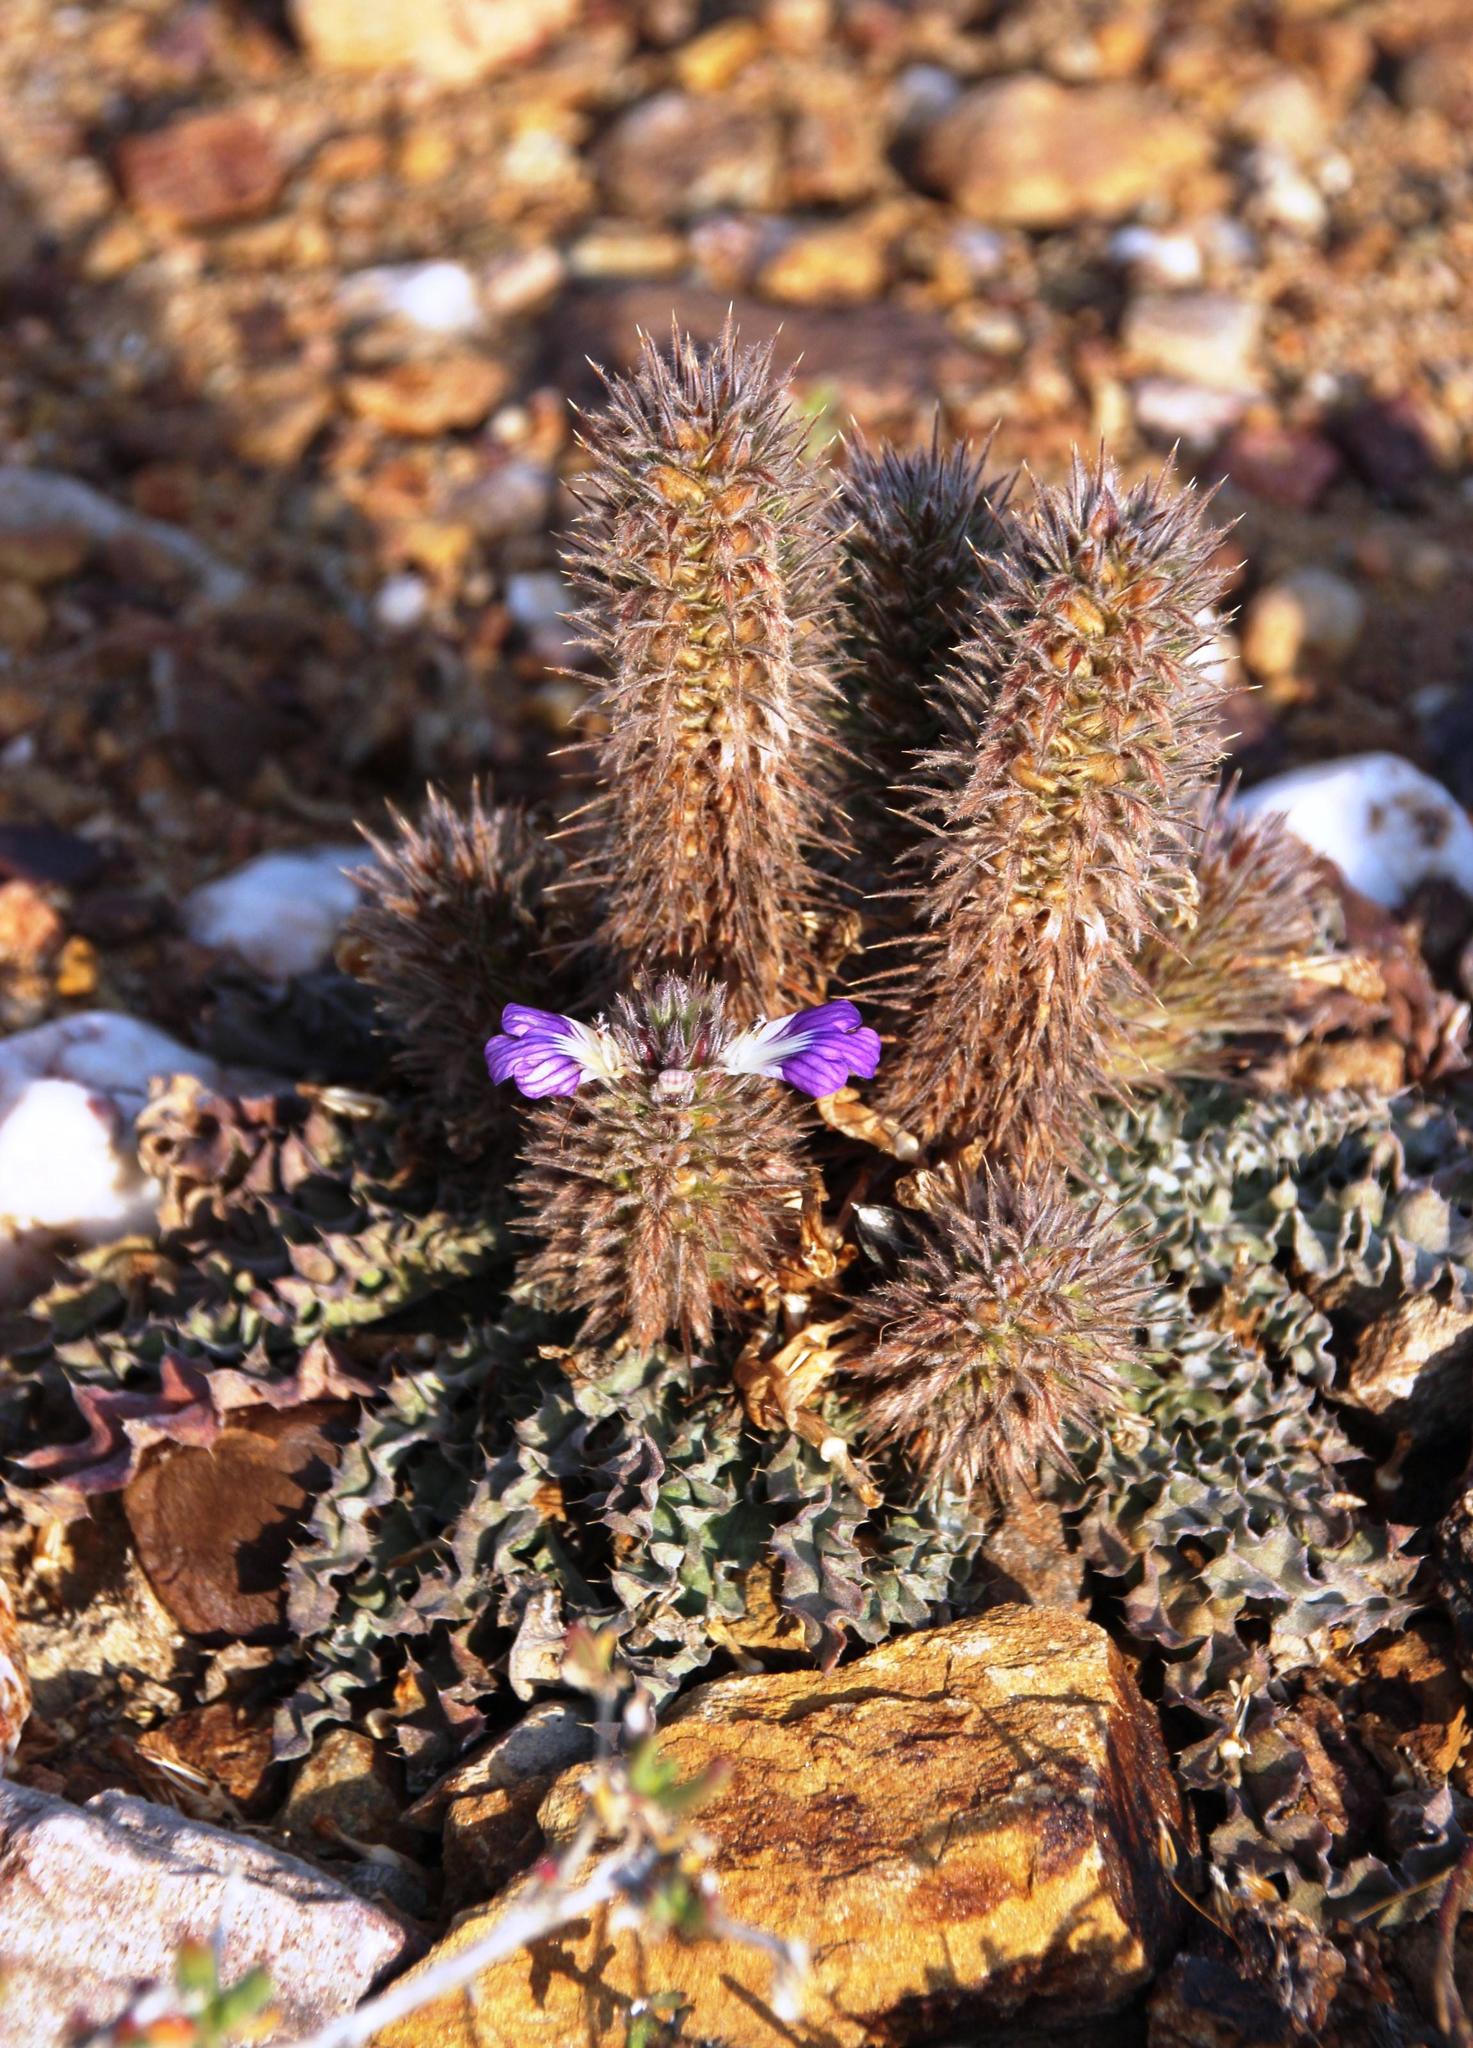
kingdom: Plantae
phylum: Tracheophyta
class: Magnoliopsida
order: Lamiales
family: Acanthaceae
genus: Acanthopsis
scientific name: Acanthopsis dispermoides
